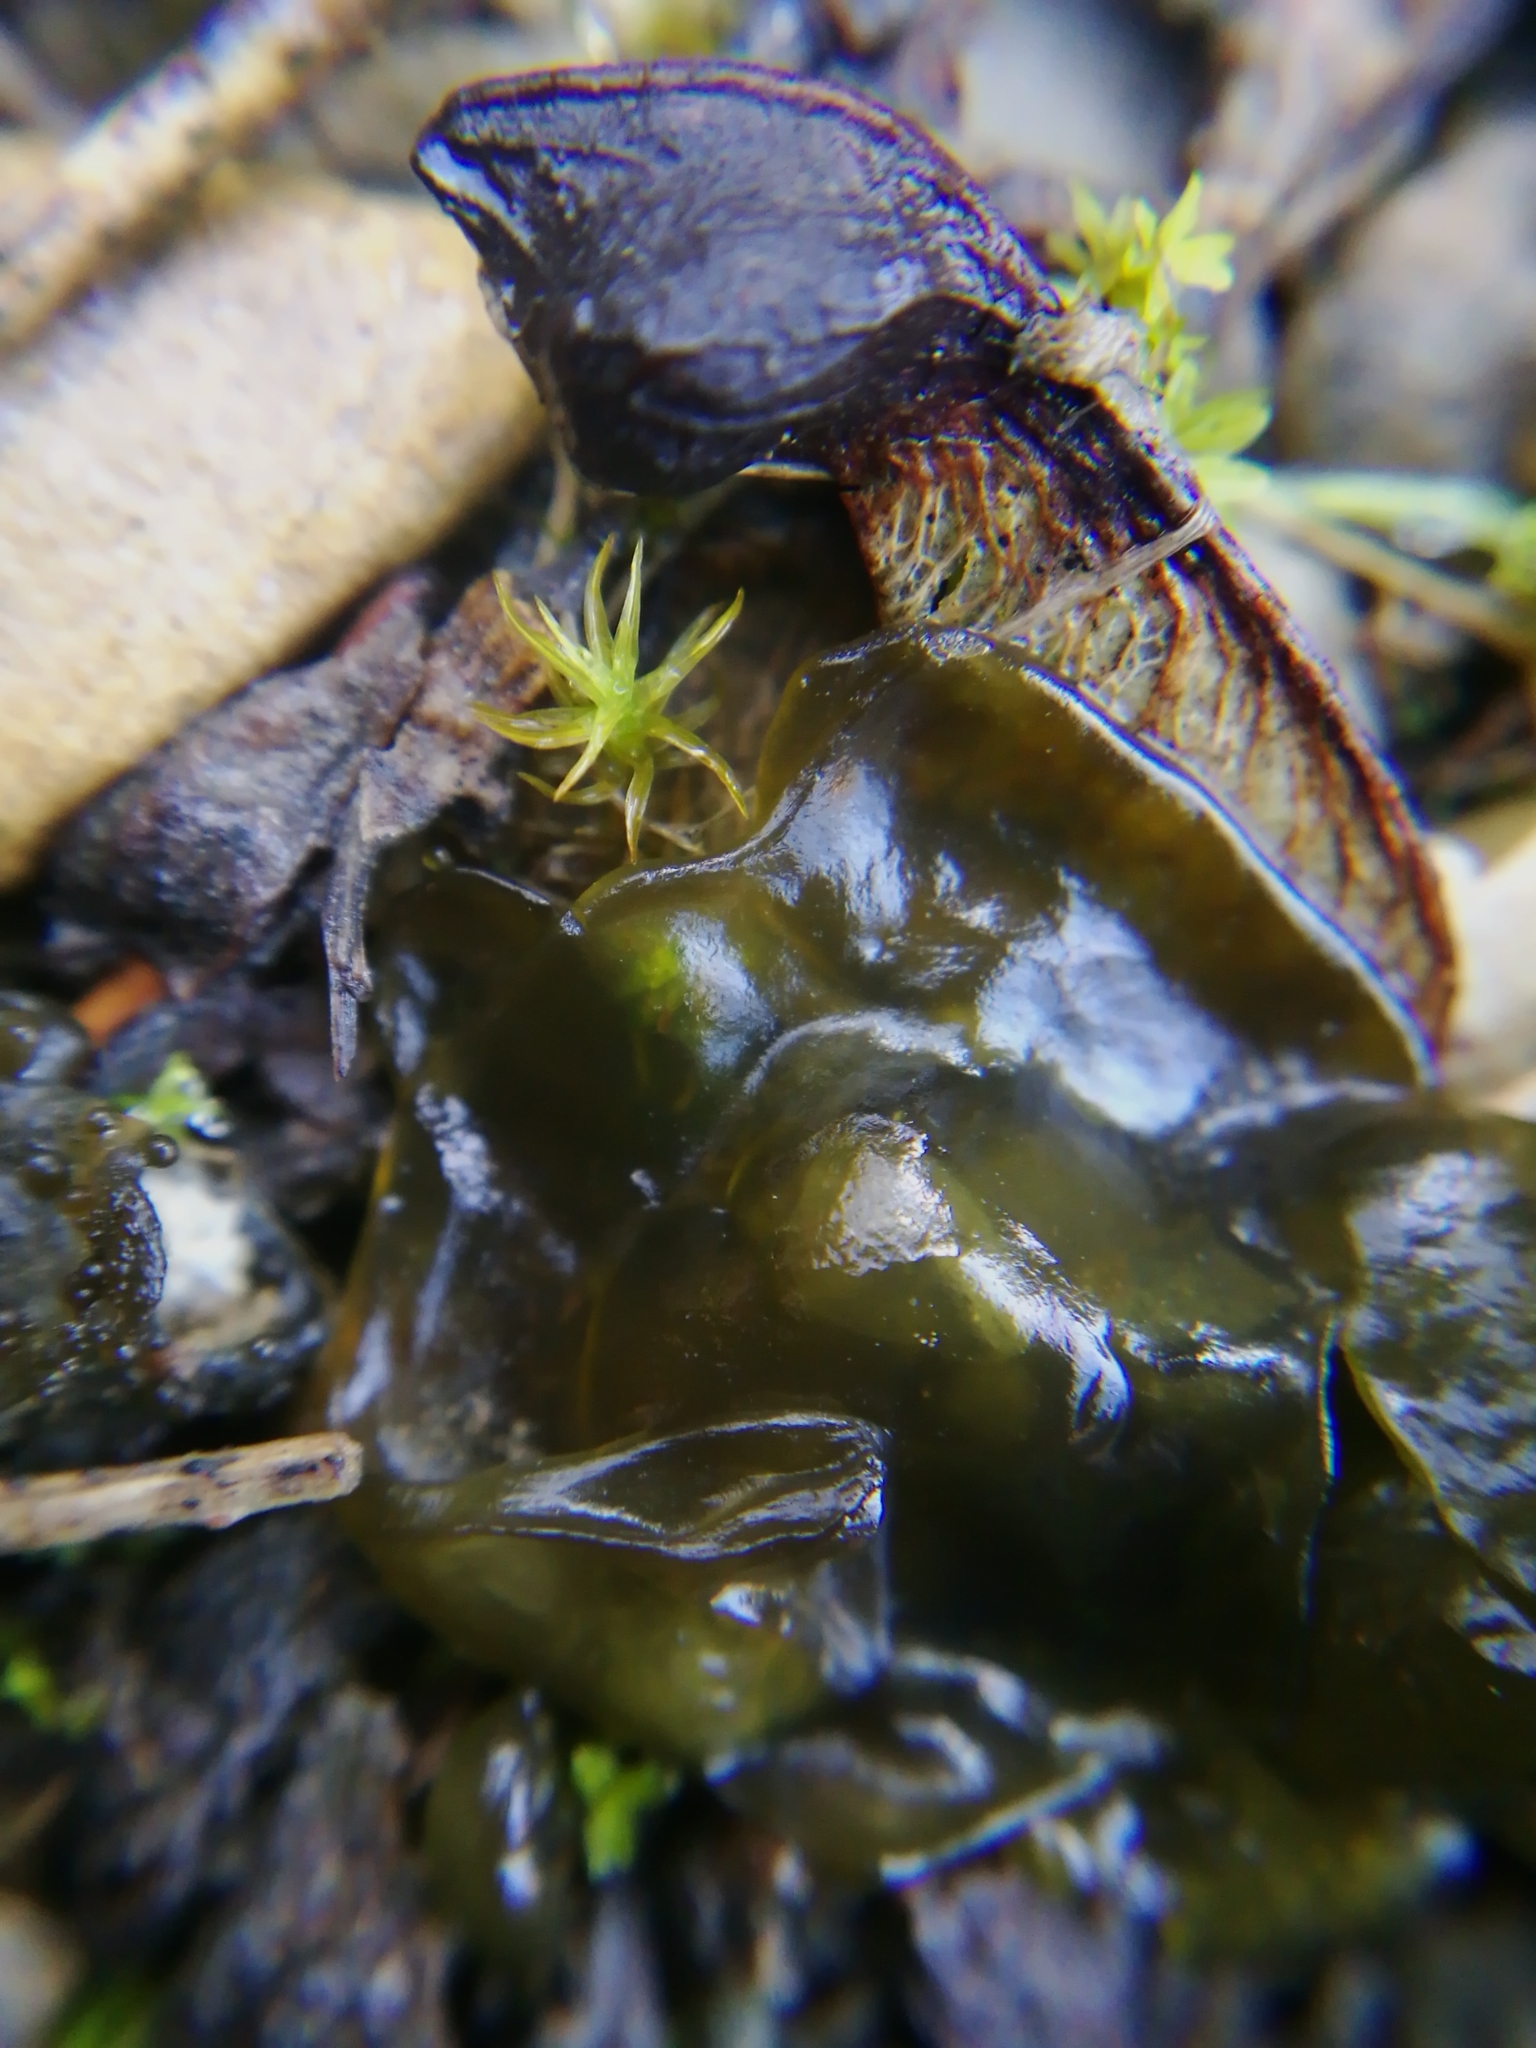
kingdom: Bacteria
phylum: Cyanobacteria
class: Cyanobacteriia
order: Cyanobacteriales
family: Nostocaceae
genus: Nostoc
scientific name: Nostoc commune
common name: Star jelly
